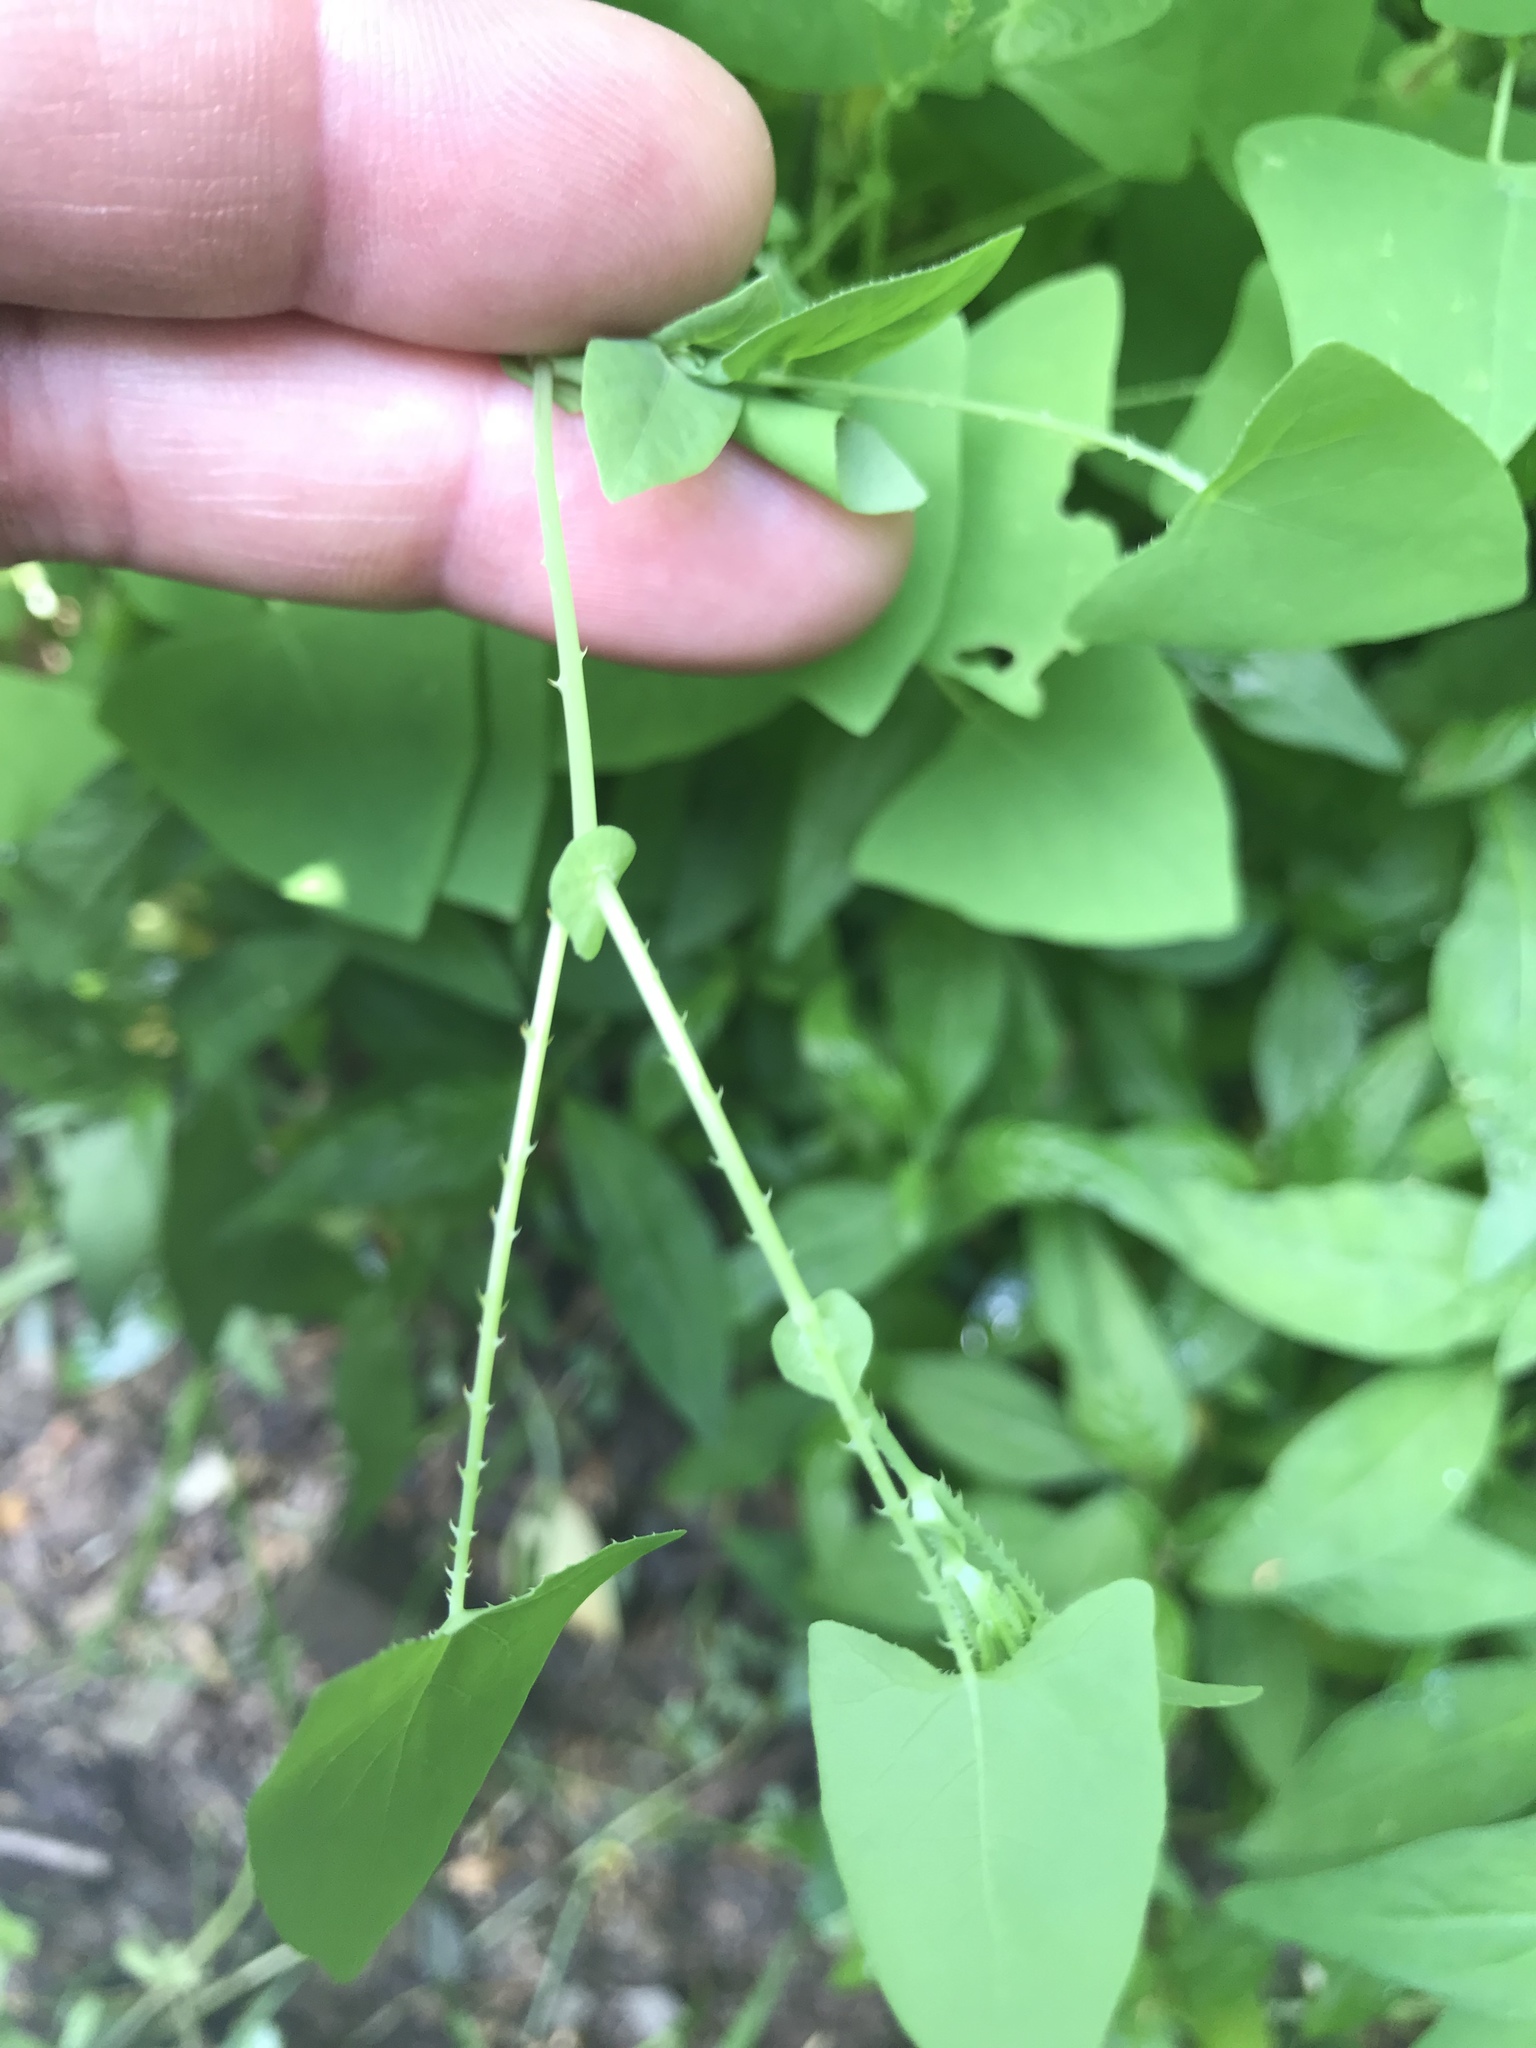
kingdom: Plantae
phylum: Tracheophyta
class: Magnoliopsida
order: Caryophyllales
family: Polygonaceae
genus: Persicaria
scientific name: Persicaria perfoliata
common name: Asiatic tearthumb
